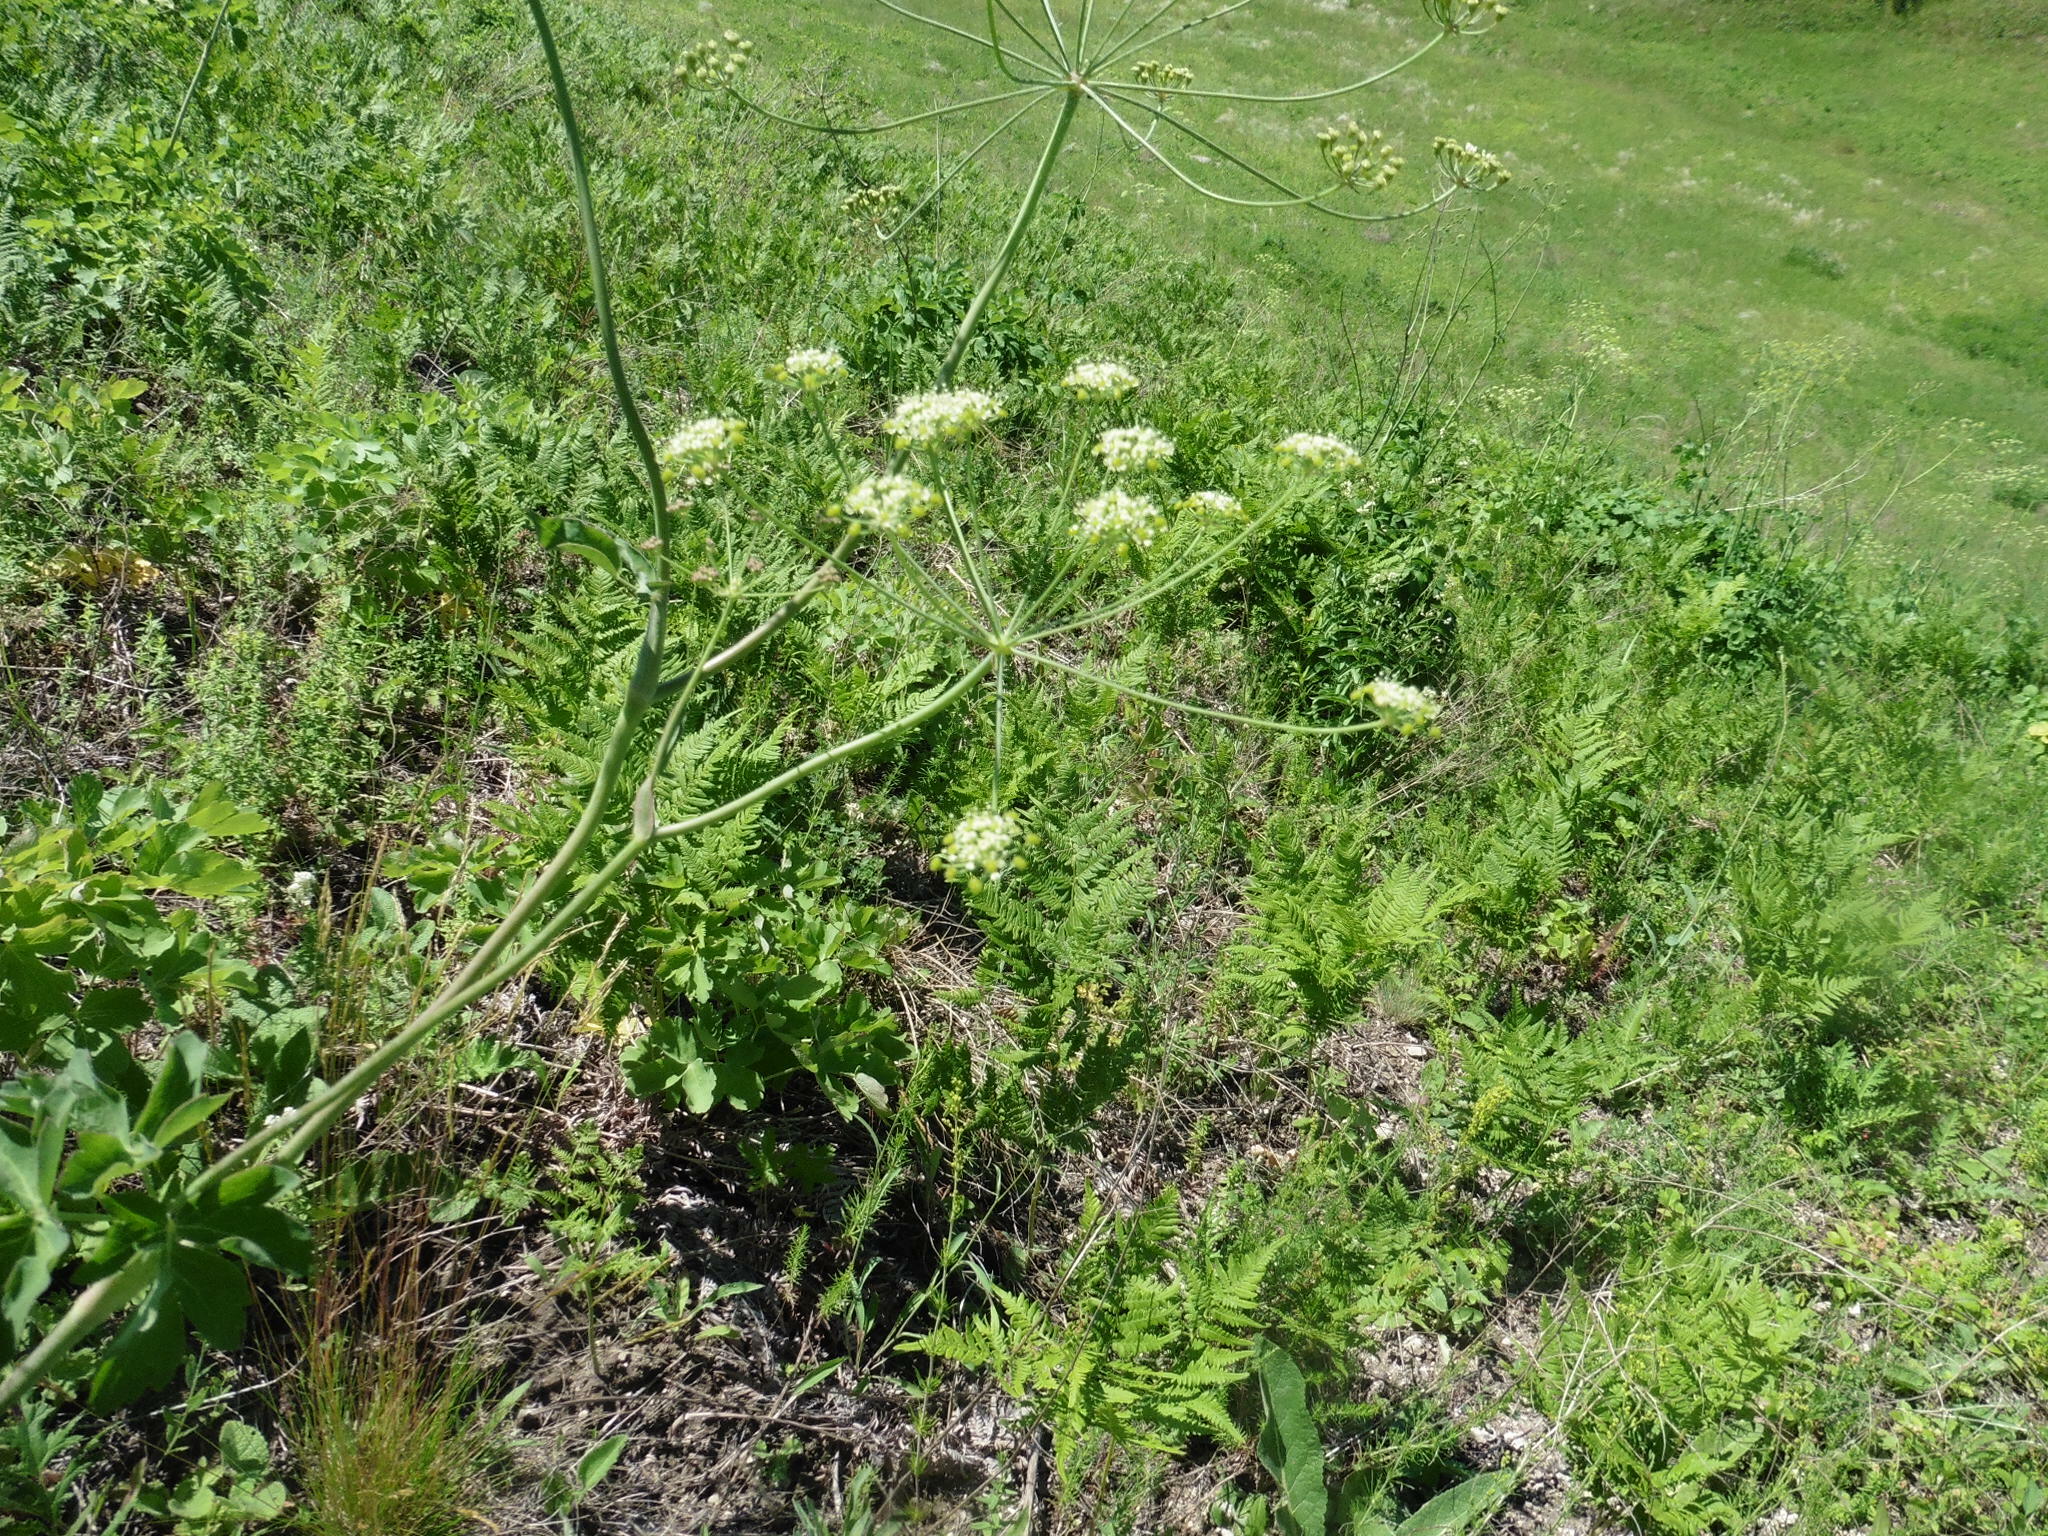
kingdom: Plantae
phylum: Tracheophyta
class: Magnoliopsida
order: Apiales
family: Apiaceae
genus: Laser
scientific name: Laser trilobum
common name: Laser
